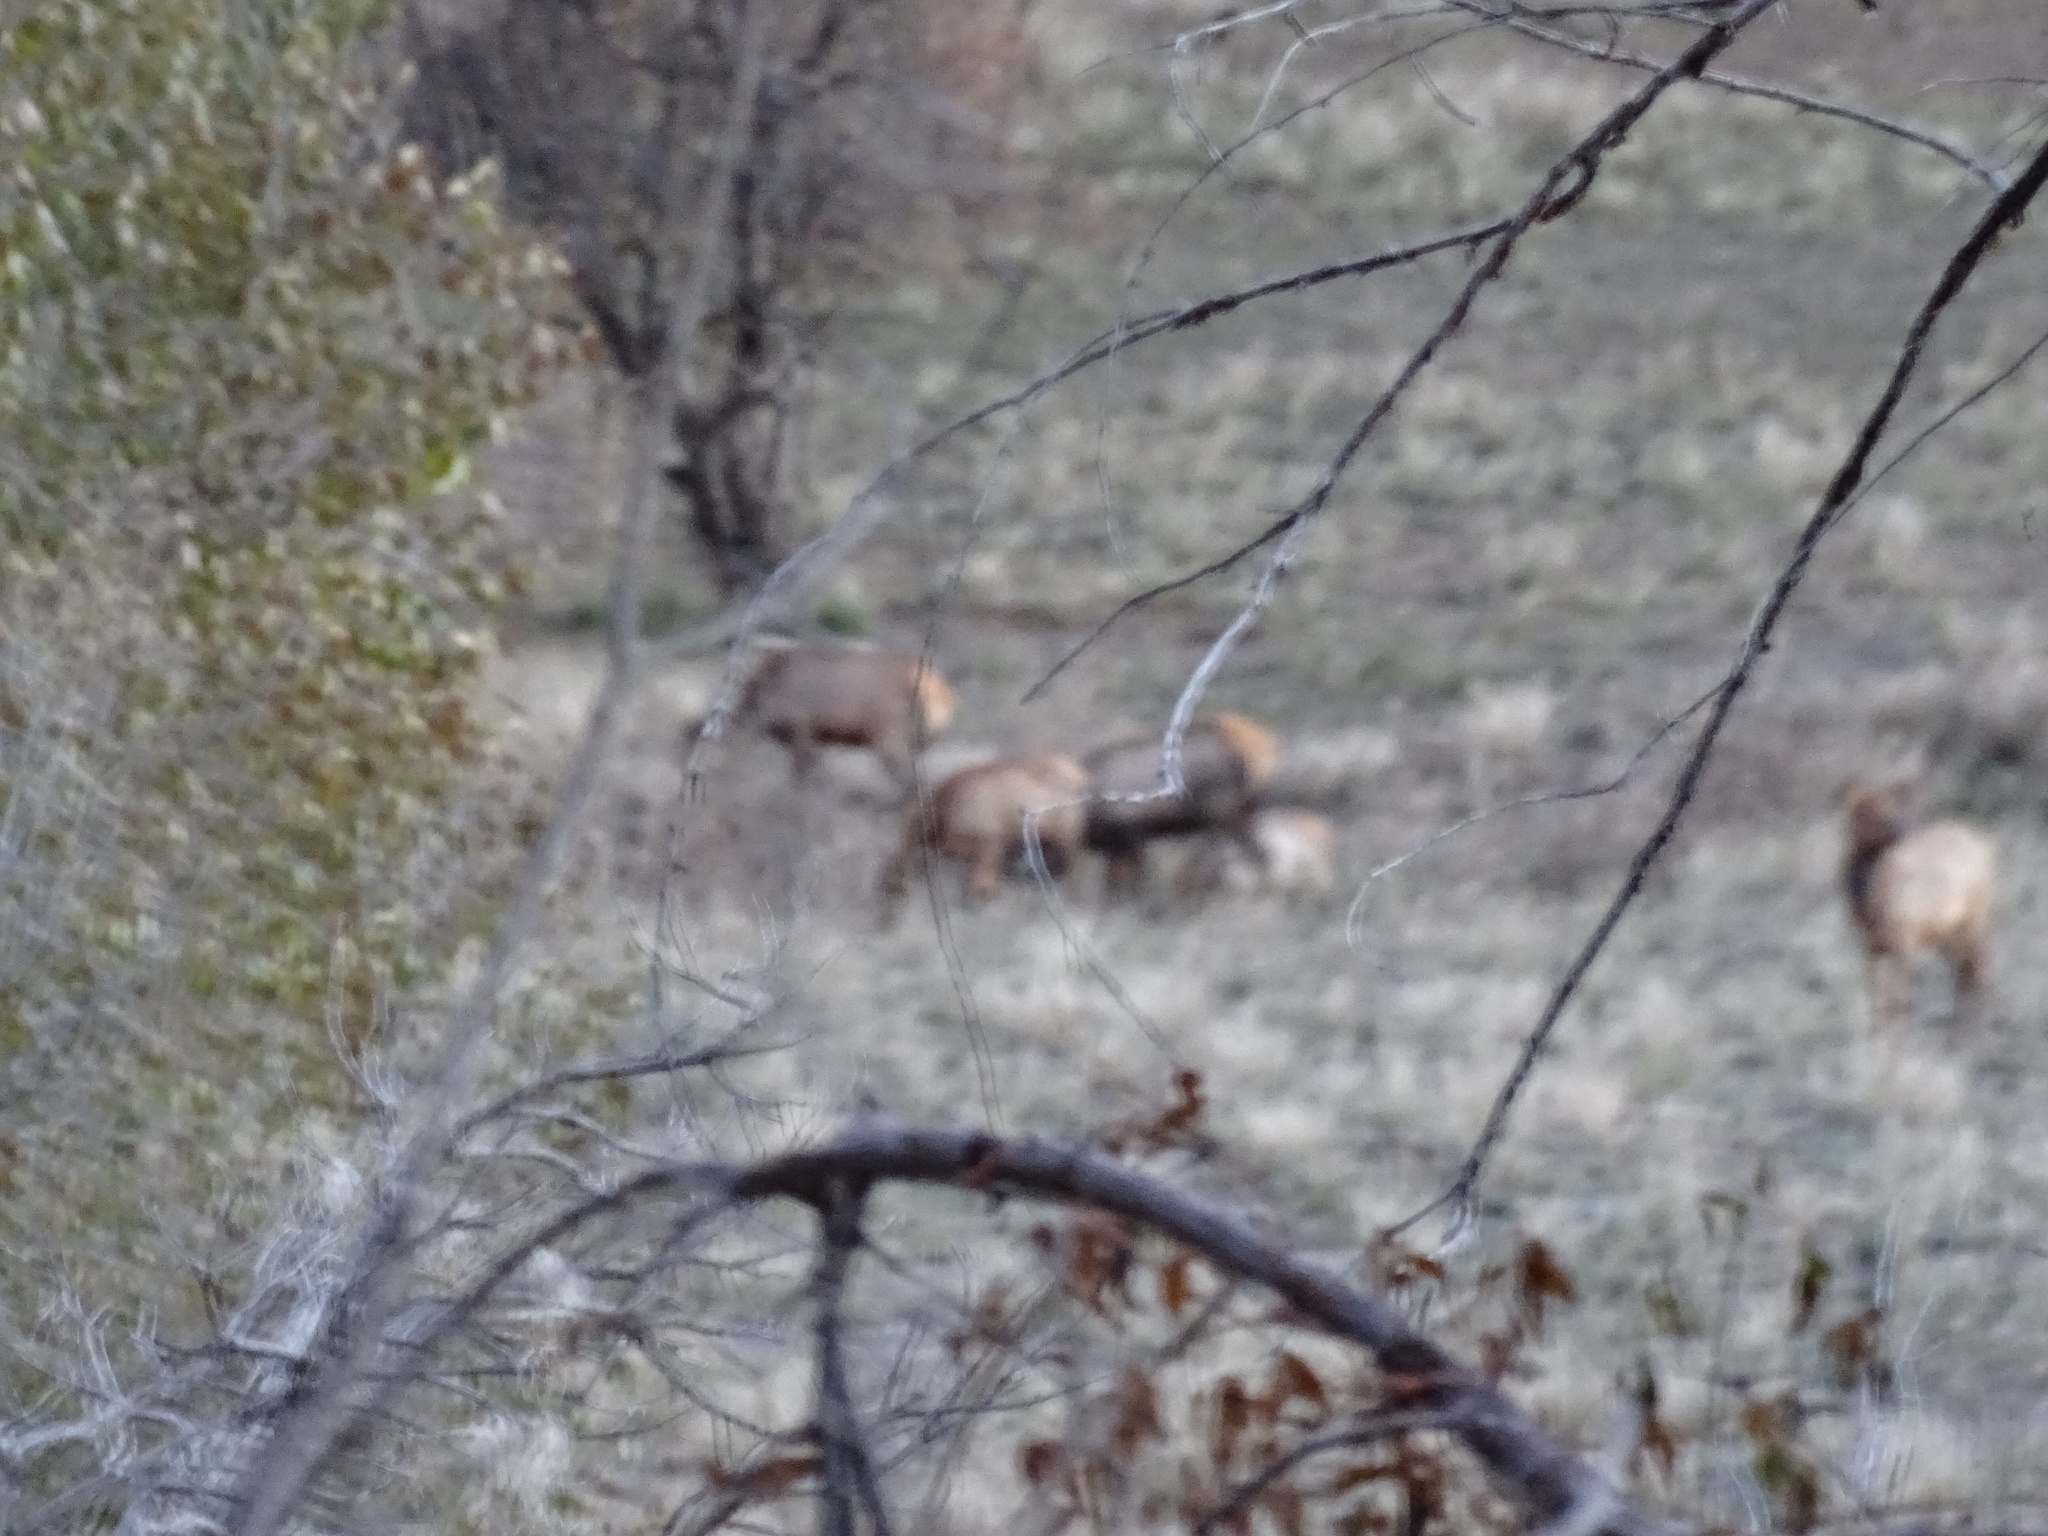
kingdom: Animalia
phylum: Chordata
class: Mammalia
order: Artiodactyla
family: Cervidae
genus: Cervus
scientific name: Cervus elaphus
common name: Red deer
